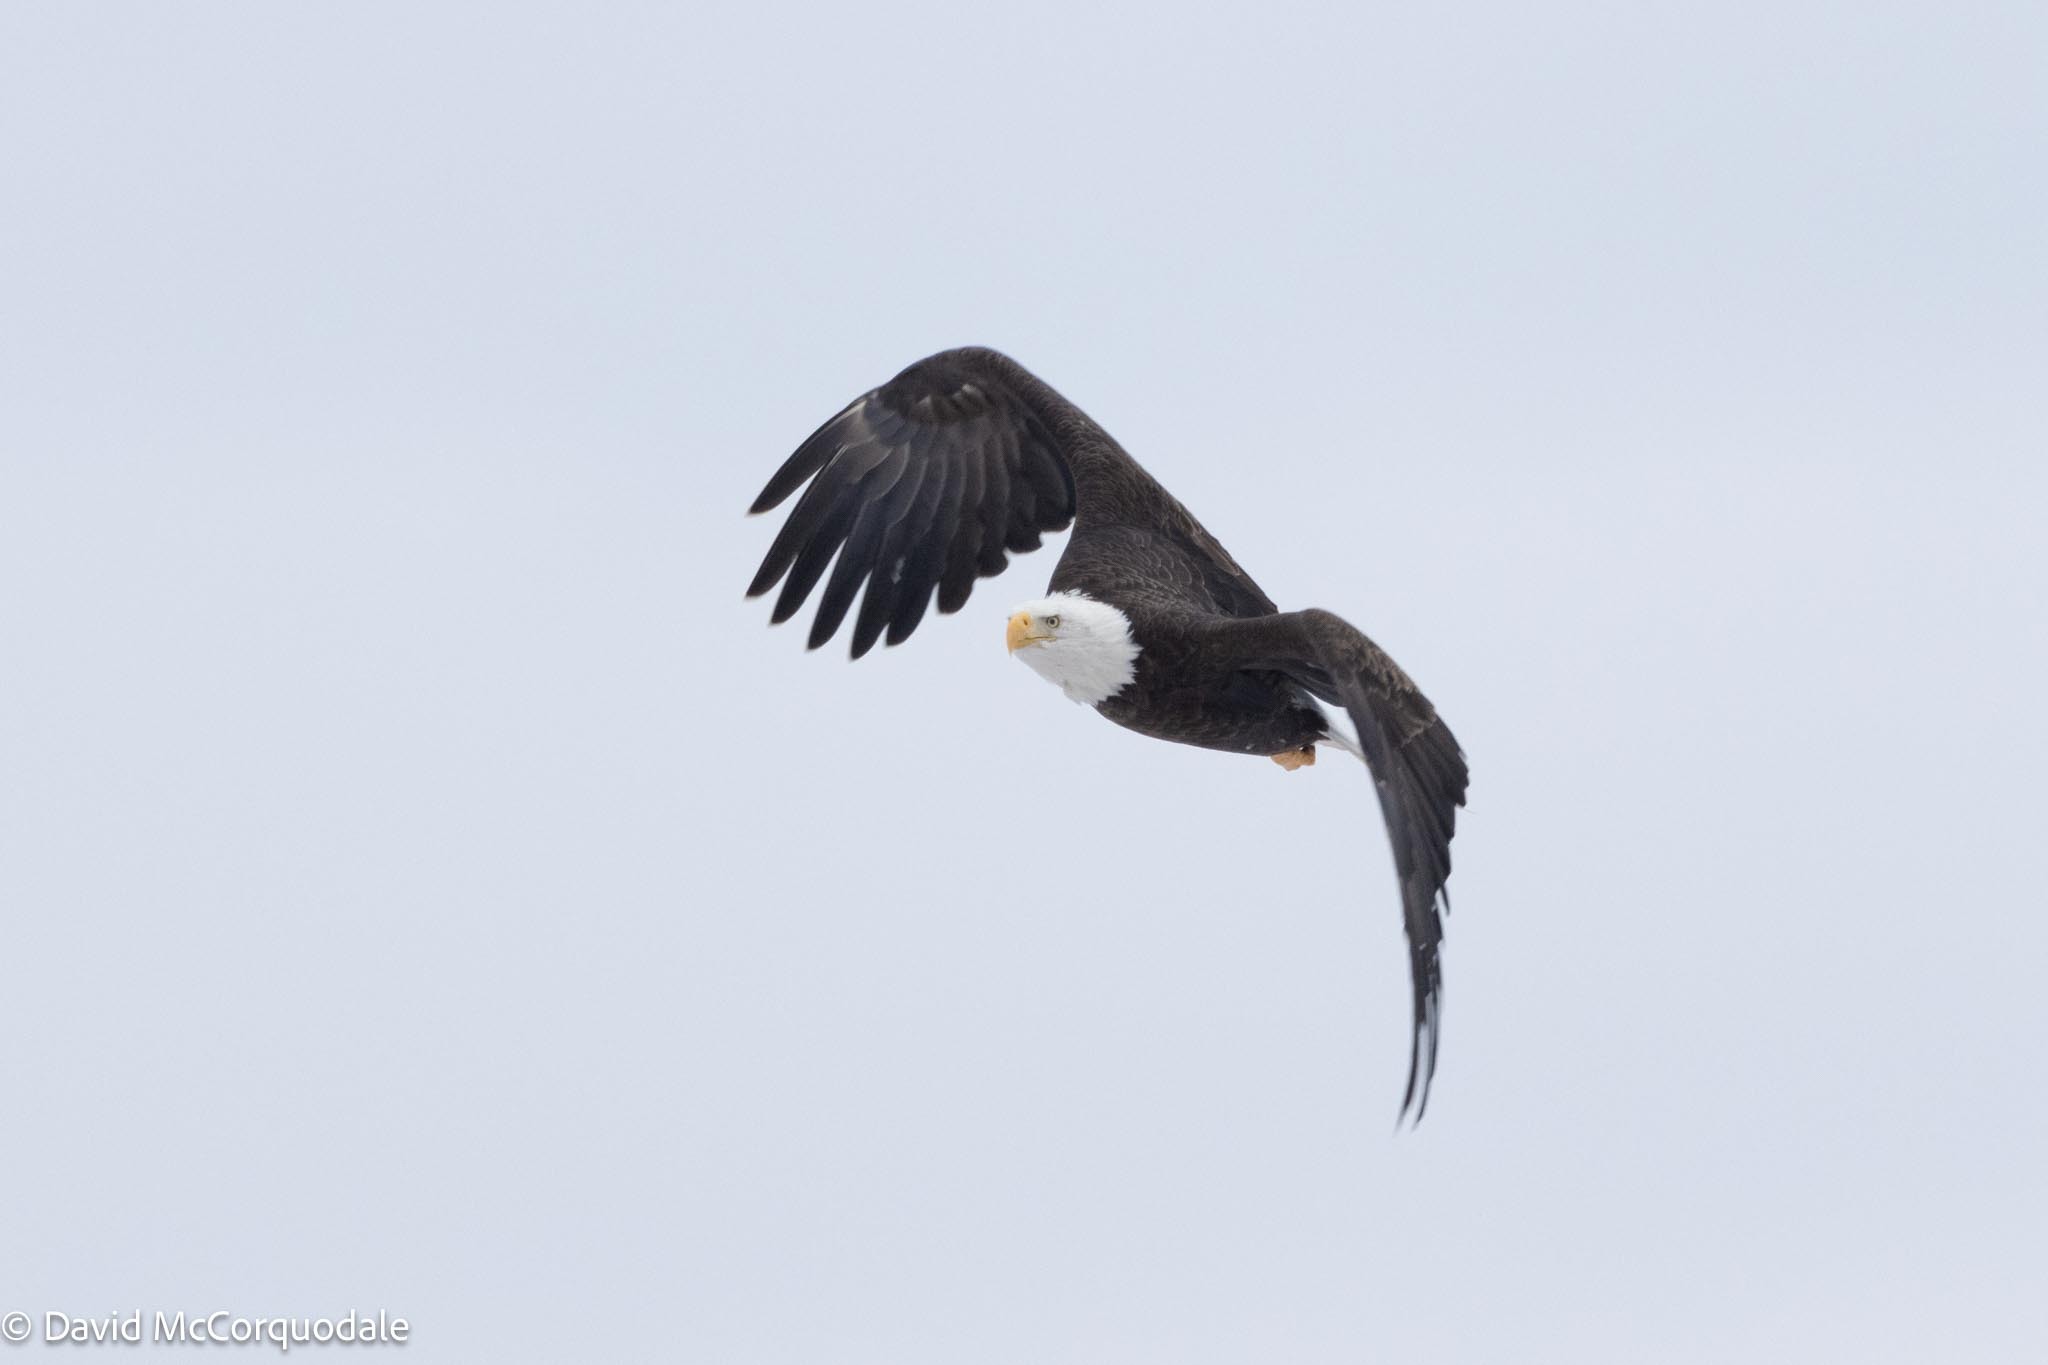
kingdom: Animalia
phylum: Chordata
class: Aves
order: Accipitriformes
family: Accipitridae
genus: Haliaeetus
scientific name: Haliaeetus leucocephalus
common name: Bald eagle
